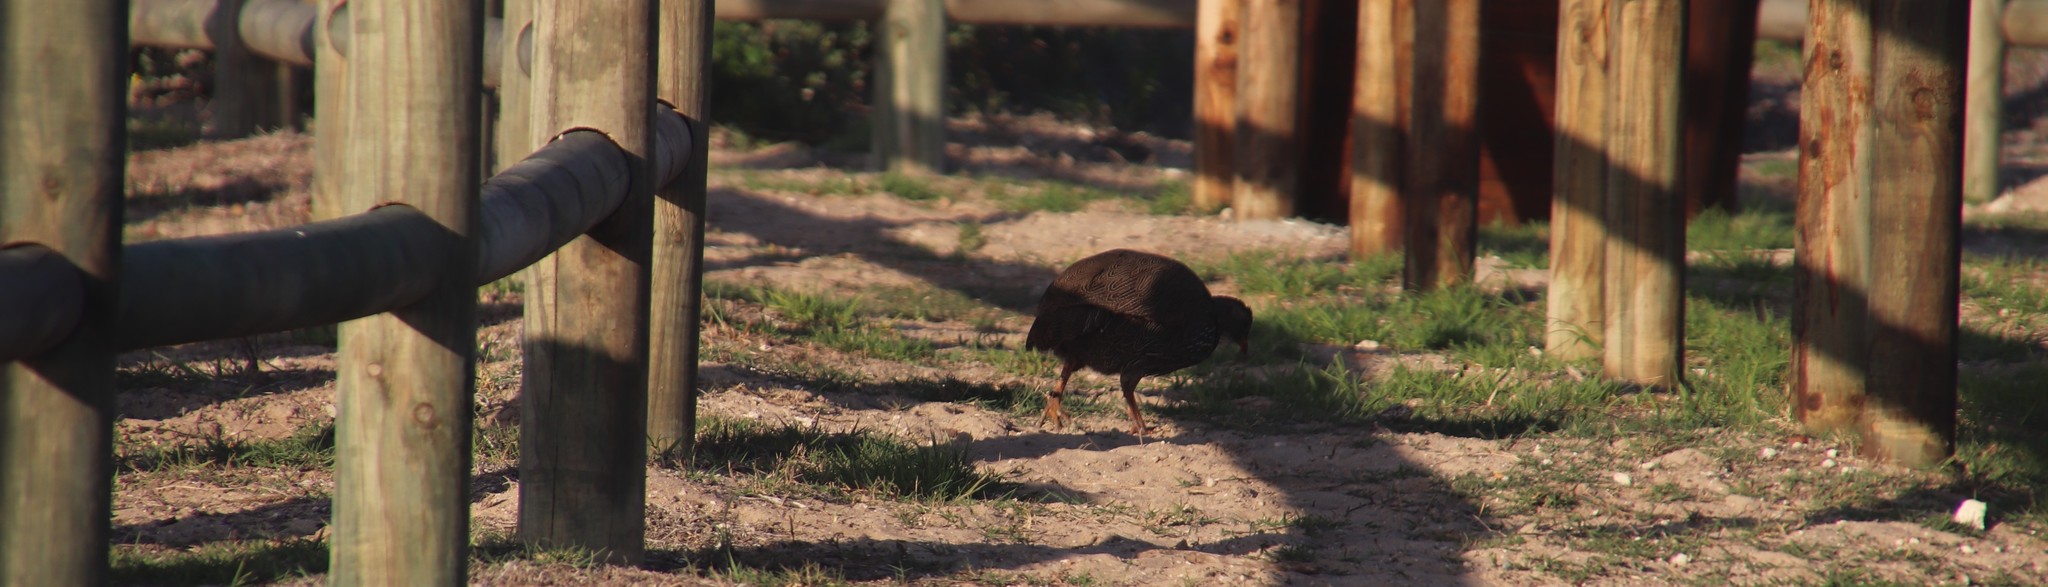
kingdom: Animalia
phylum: Chordata
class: Aves
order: Galliformes
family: Phasianidae
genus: Pternistis
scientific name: Pternistis capensis
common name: Cape spurfowl
